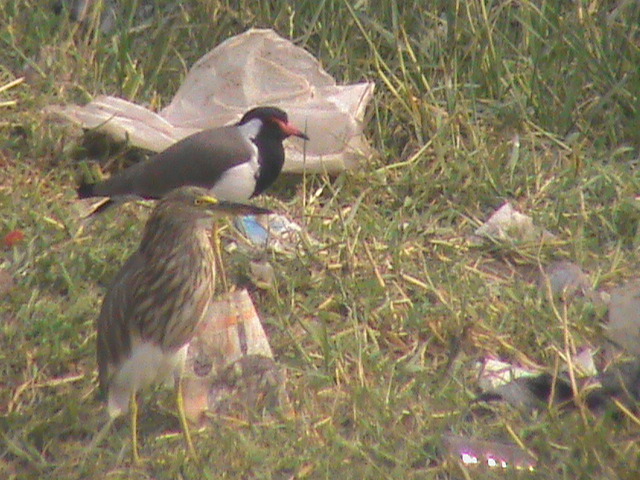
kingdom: Animalia
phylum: Chordata
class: Aves
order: Charadriiformes
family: Charadriidae
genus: Vanellus
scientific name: Vanellus indicus
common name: Red-wattled lapwing
